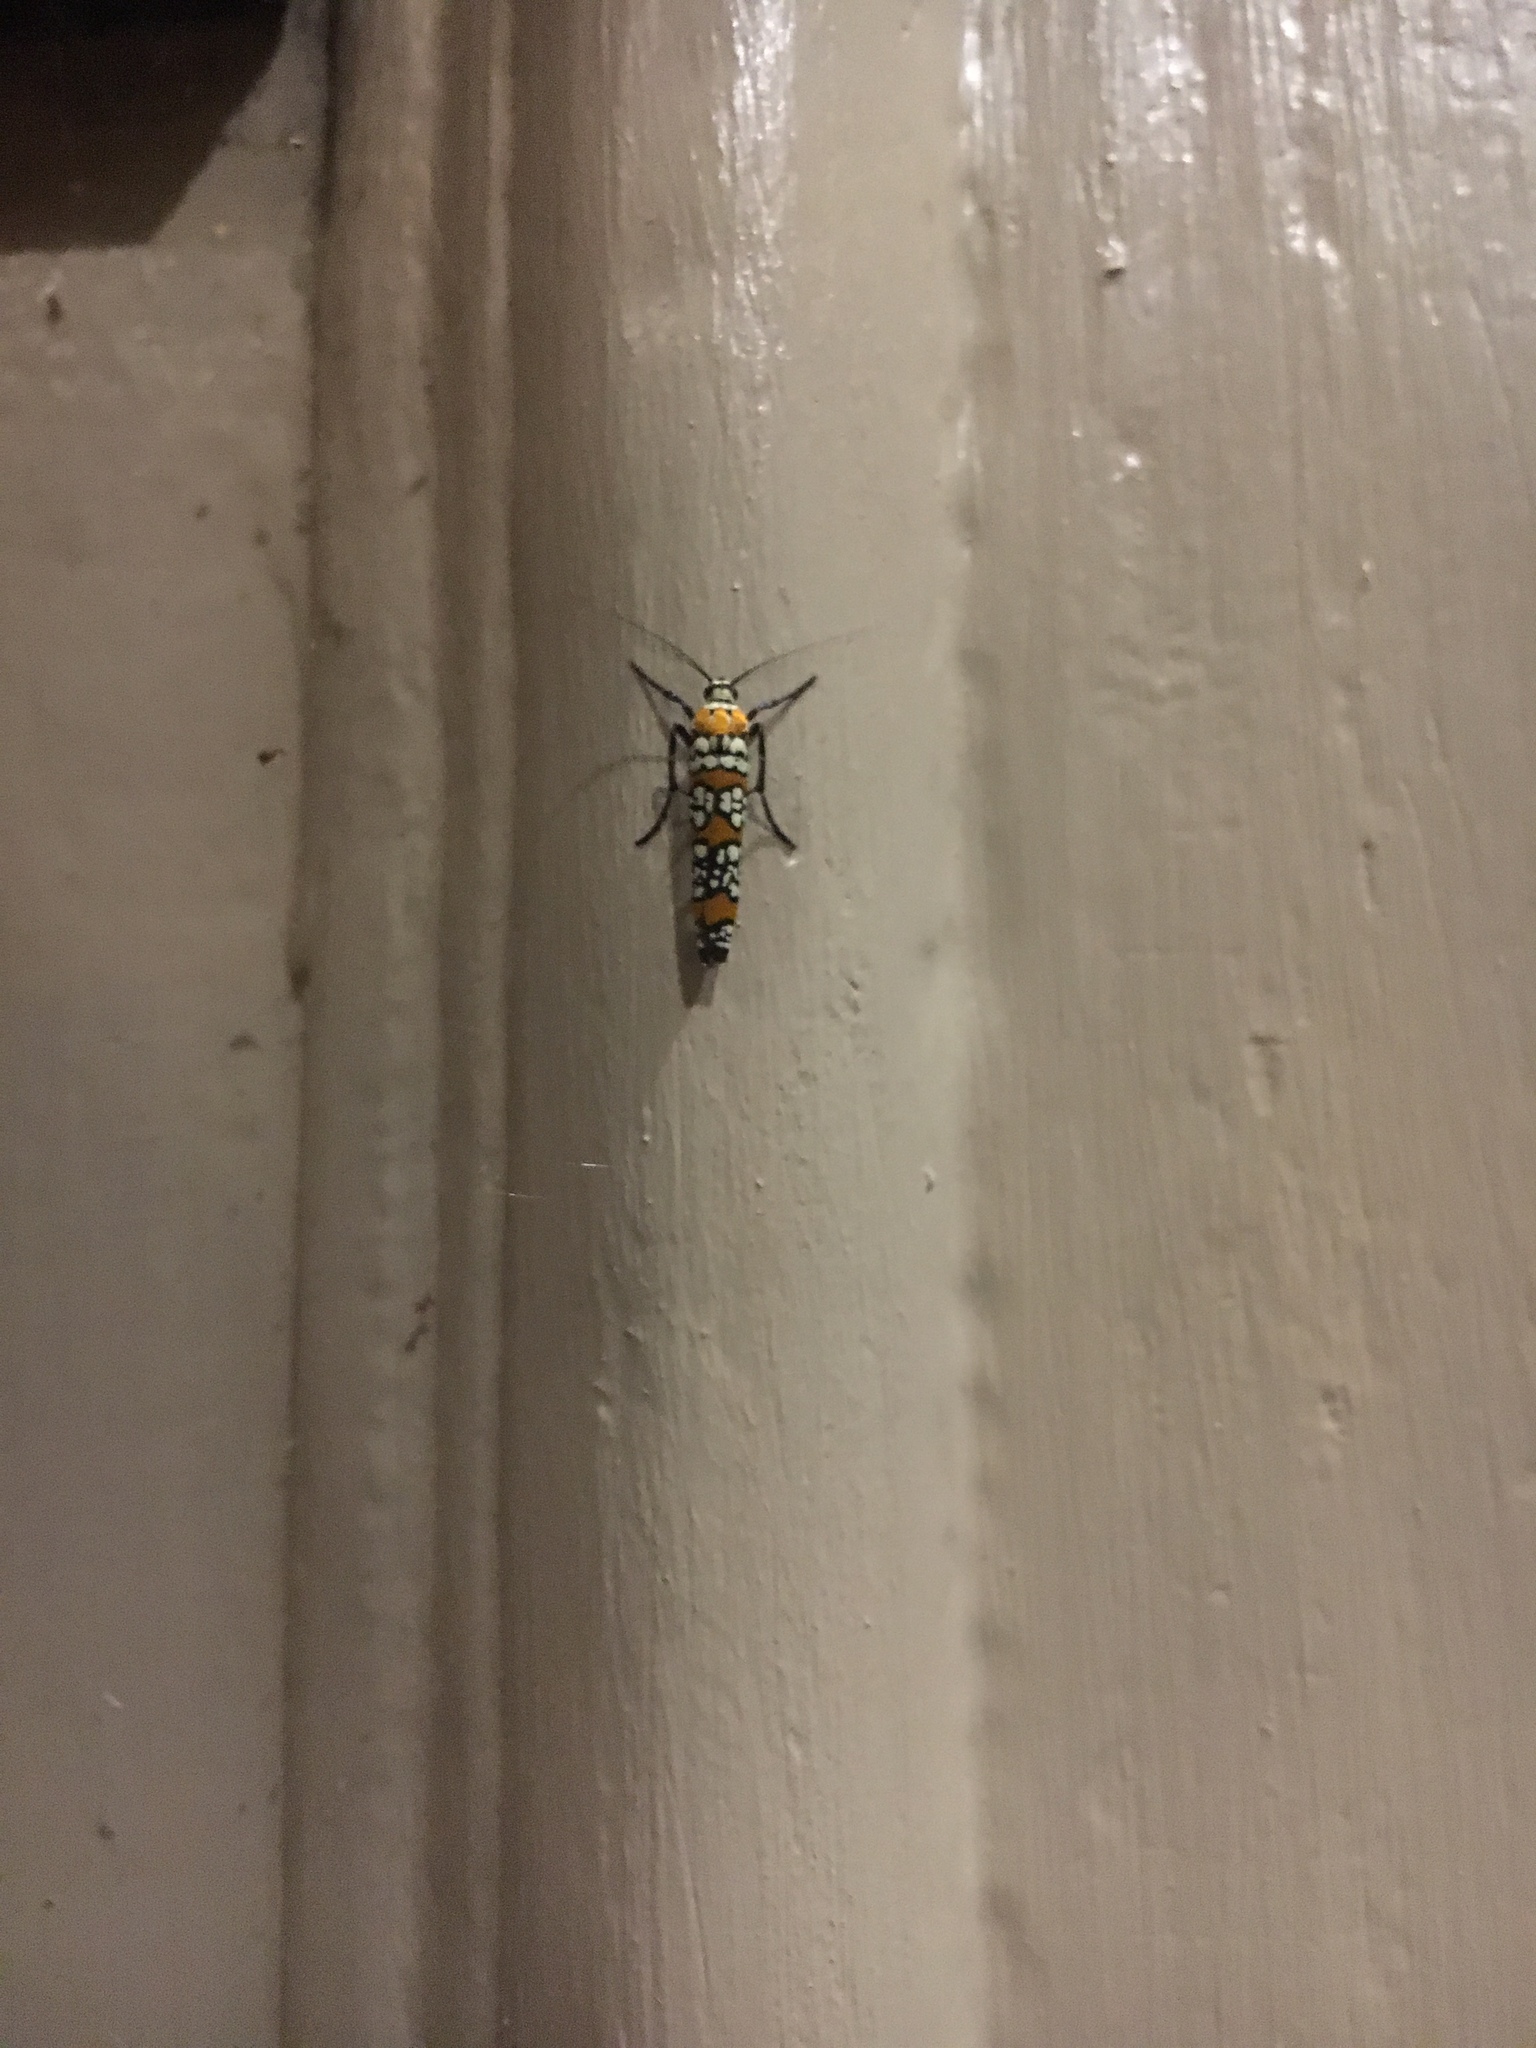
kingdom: Animalia
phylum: Arthropoda
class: Insecta
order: Lepidoptera
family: Attevidae
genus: Atteva
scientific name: Atteva punctella
